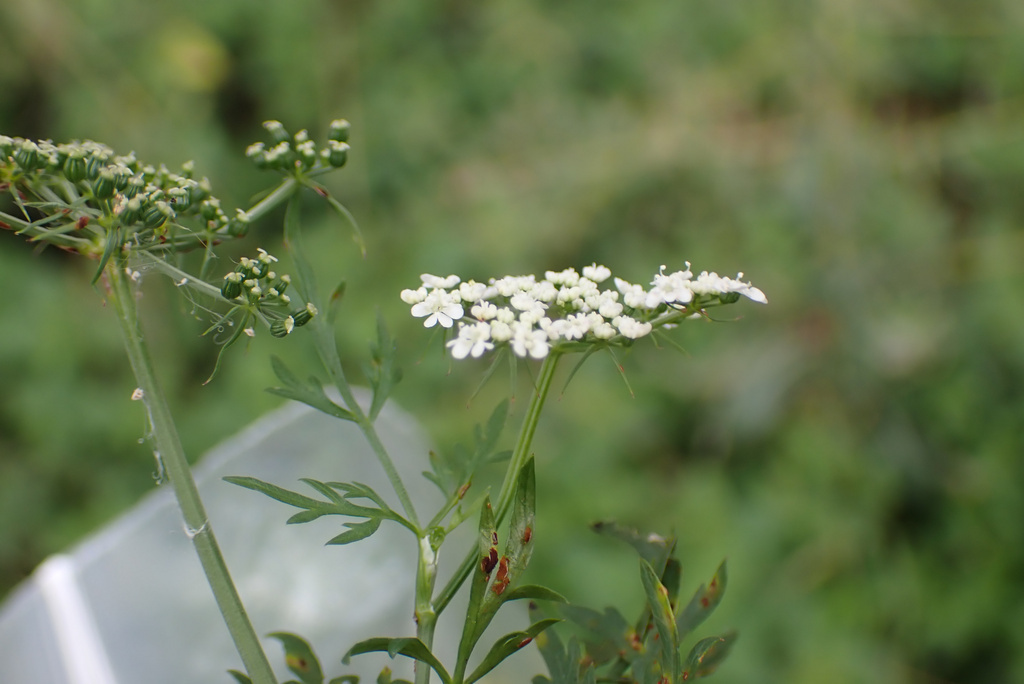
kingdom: Plantae
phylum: Tracheophyta
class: Magnoliopsida
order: Apiales
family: Apiaceae
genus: Aethusa
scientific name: Aethusa cynapium
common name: Fool's parsley
